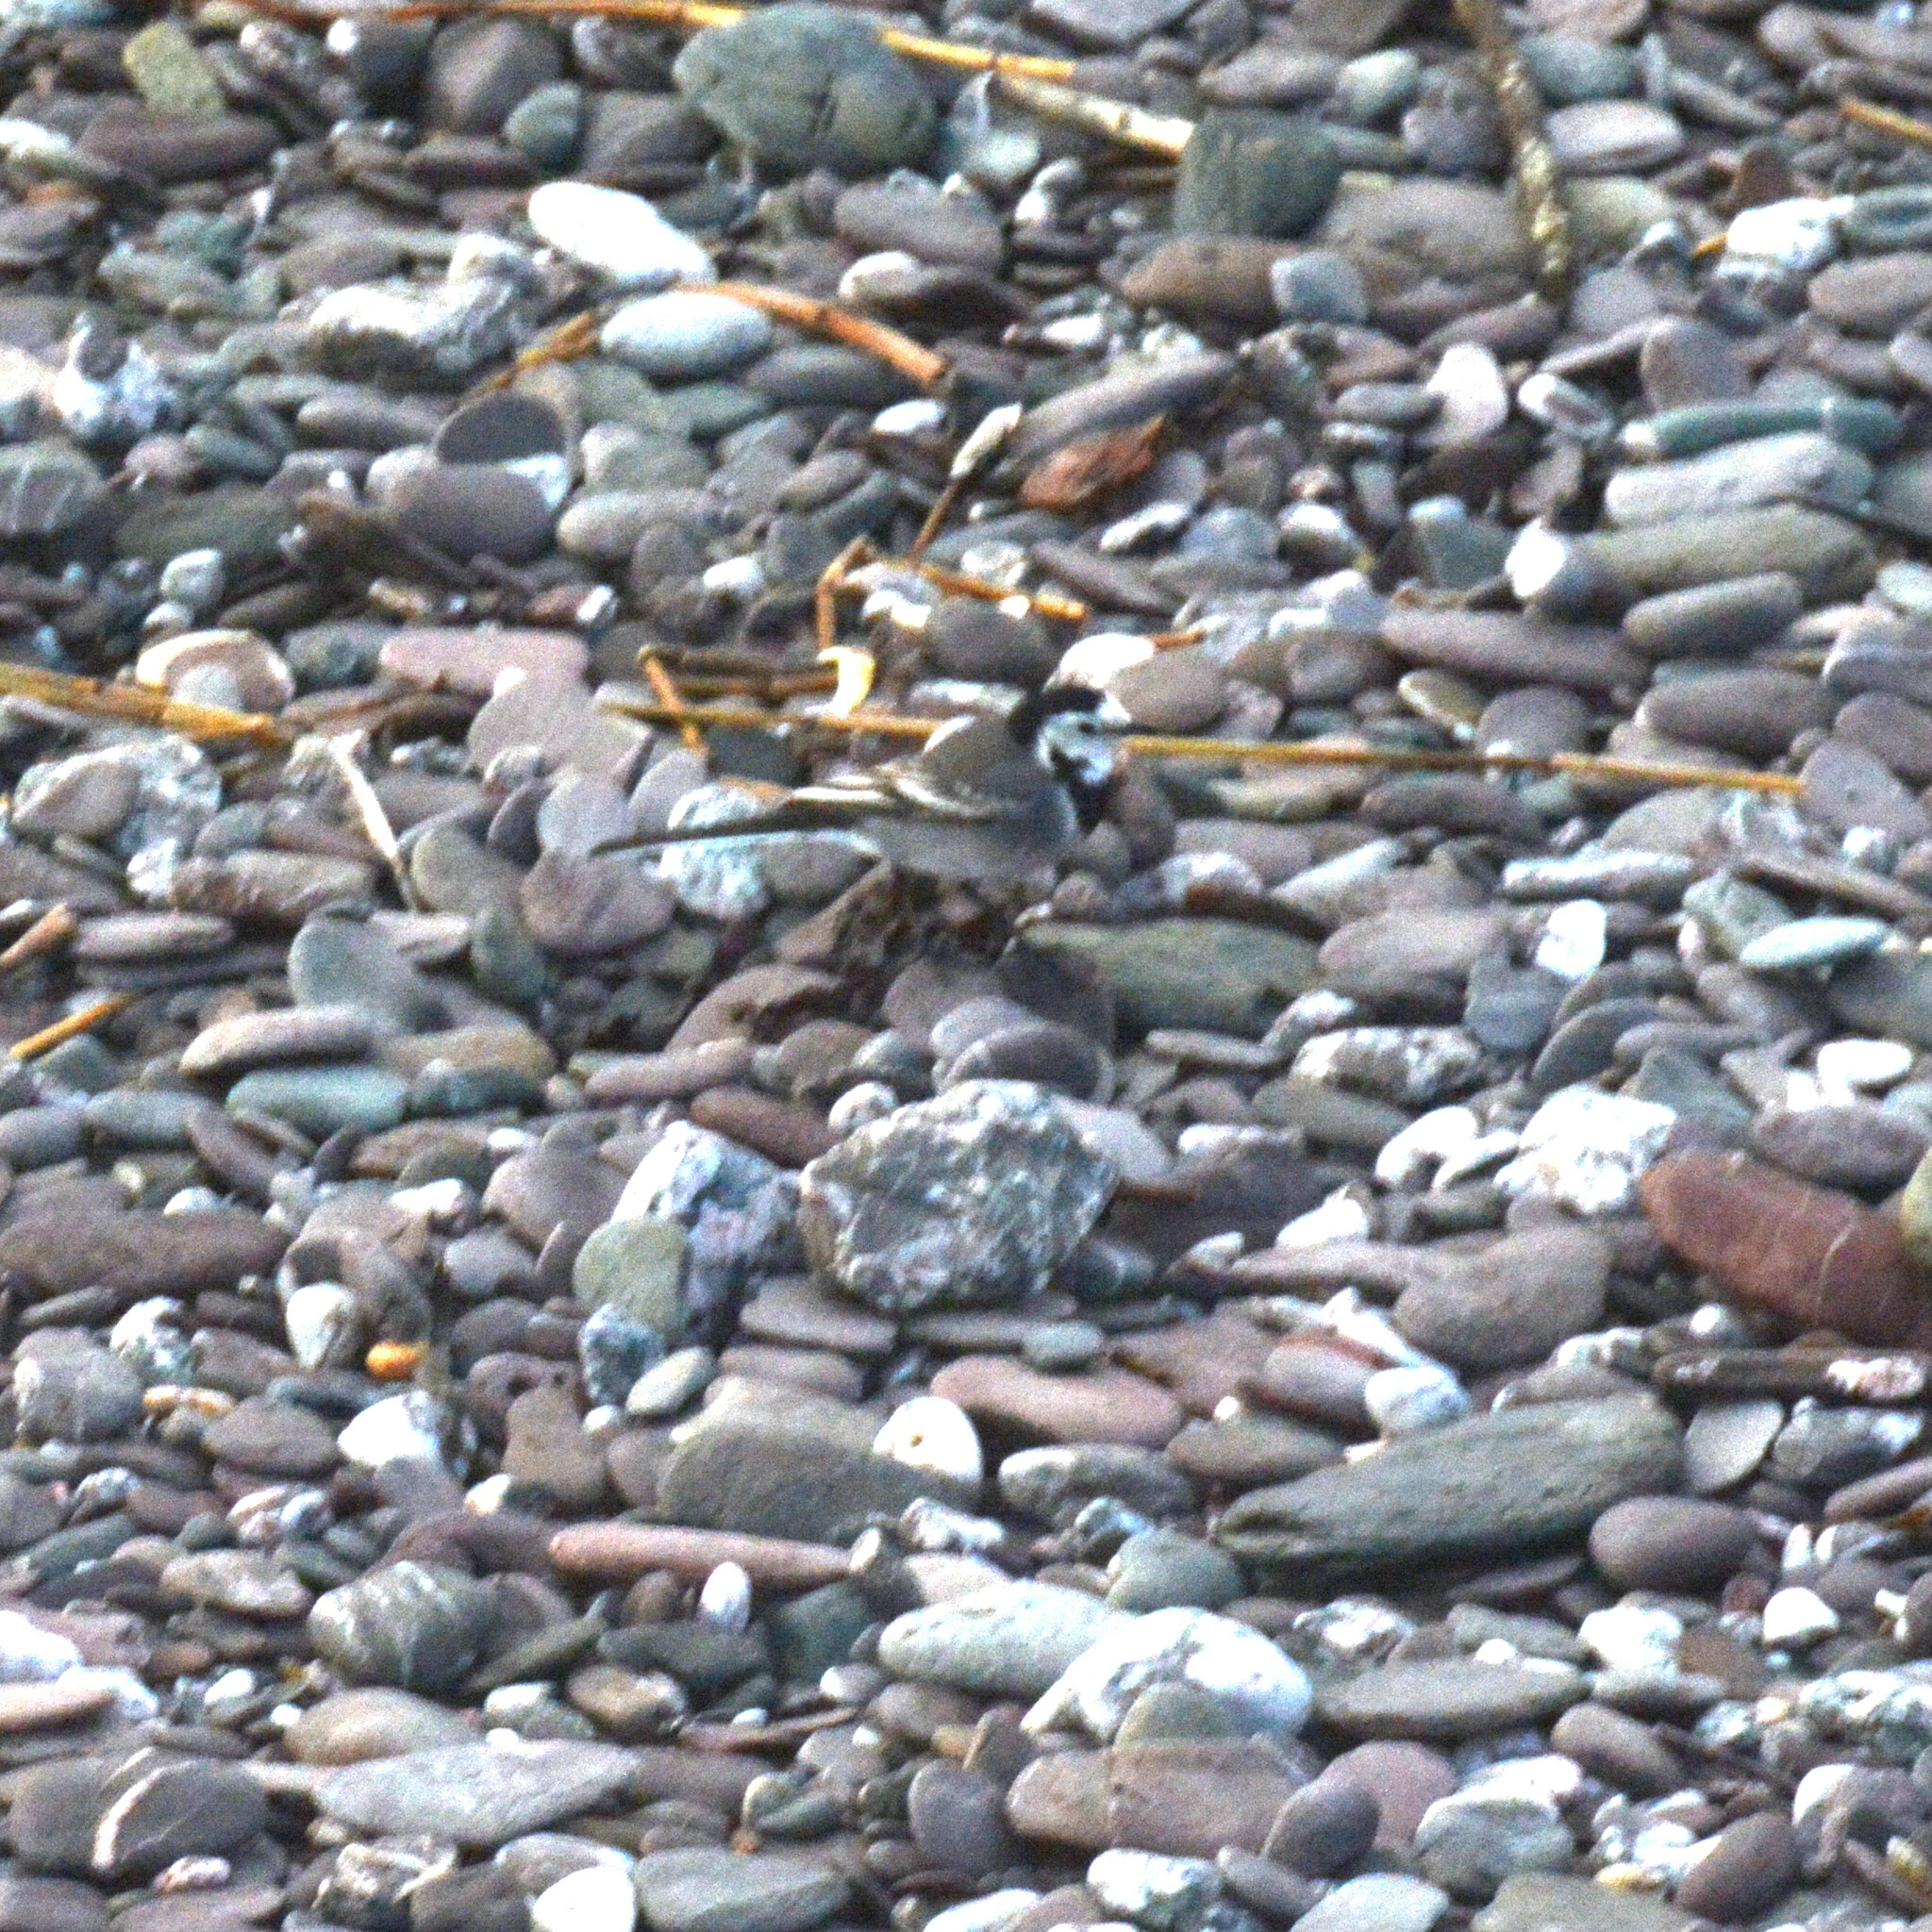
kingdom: Animalia
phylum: Chordata
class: Aves
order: Passeriformes
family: Motacillidae
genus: Motacilla
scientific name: Motacilla alba
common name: White wagtail
